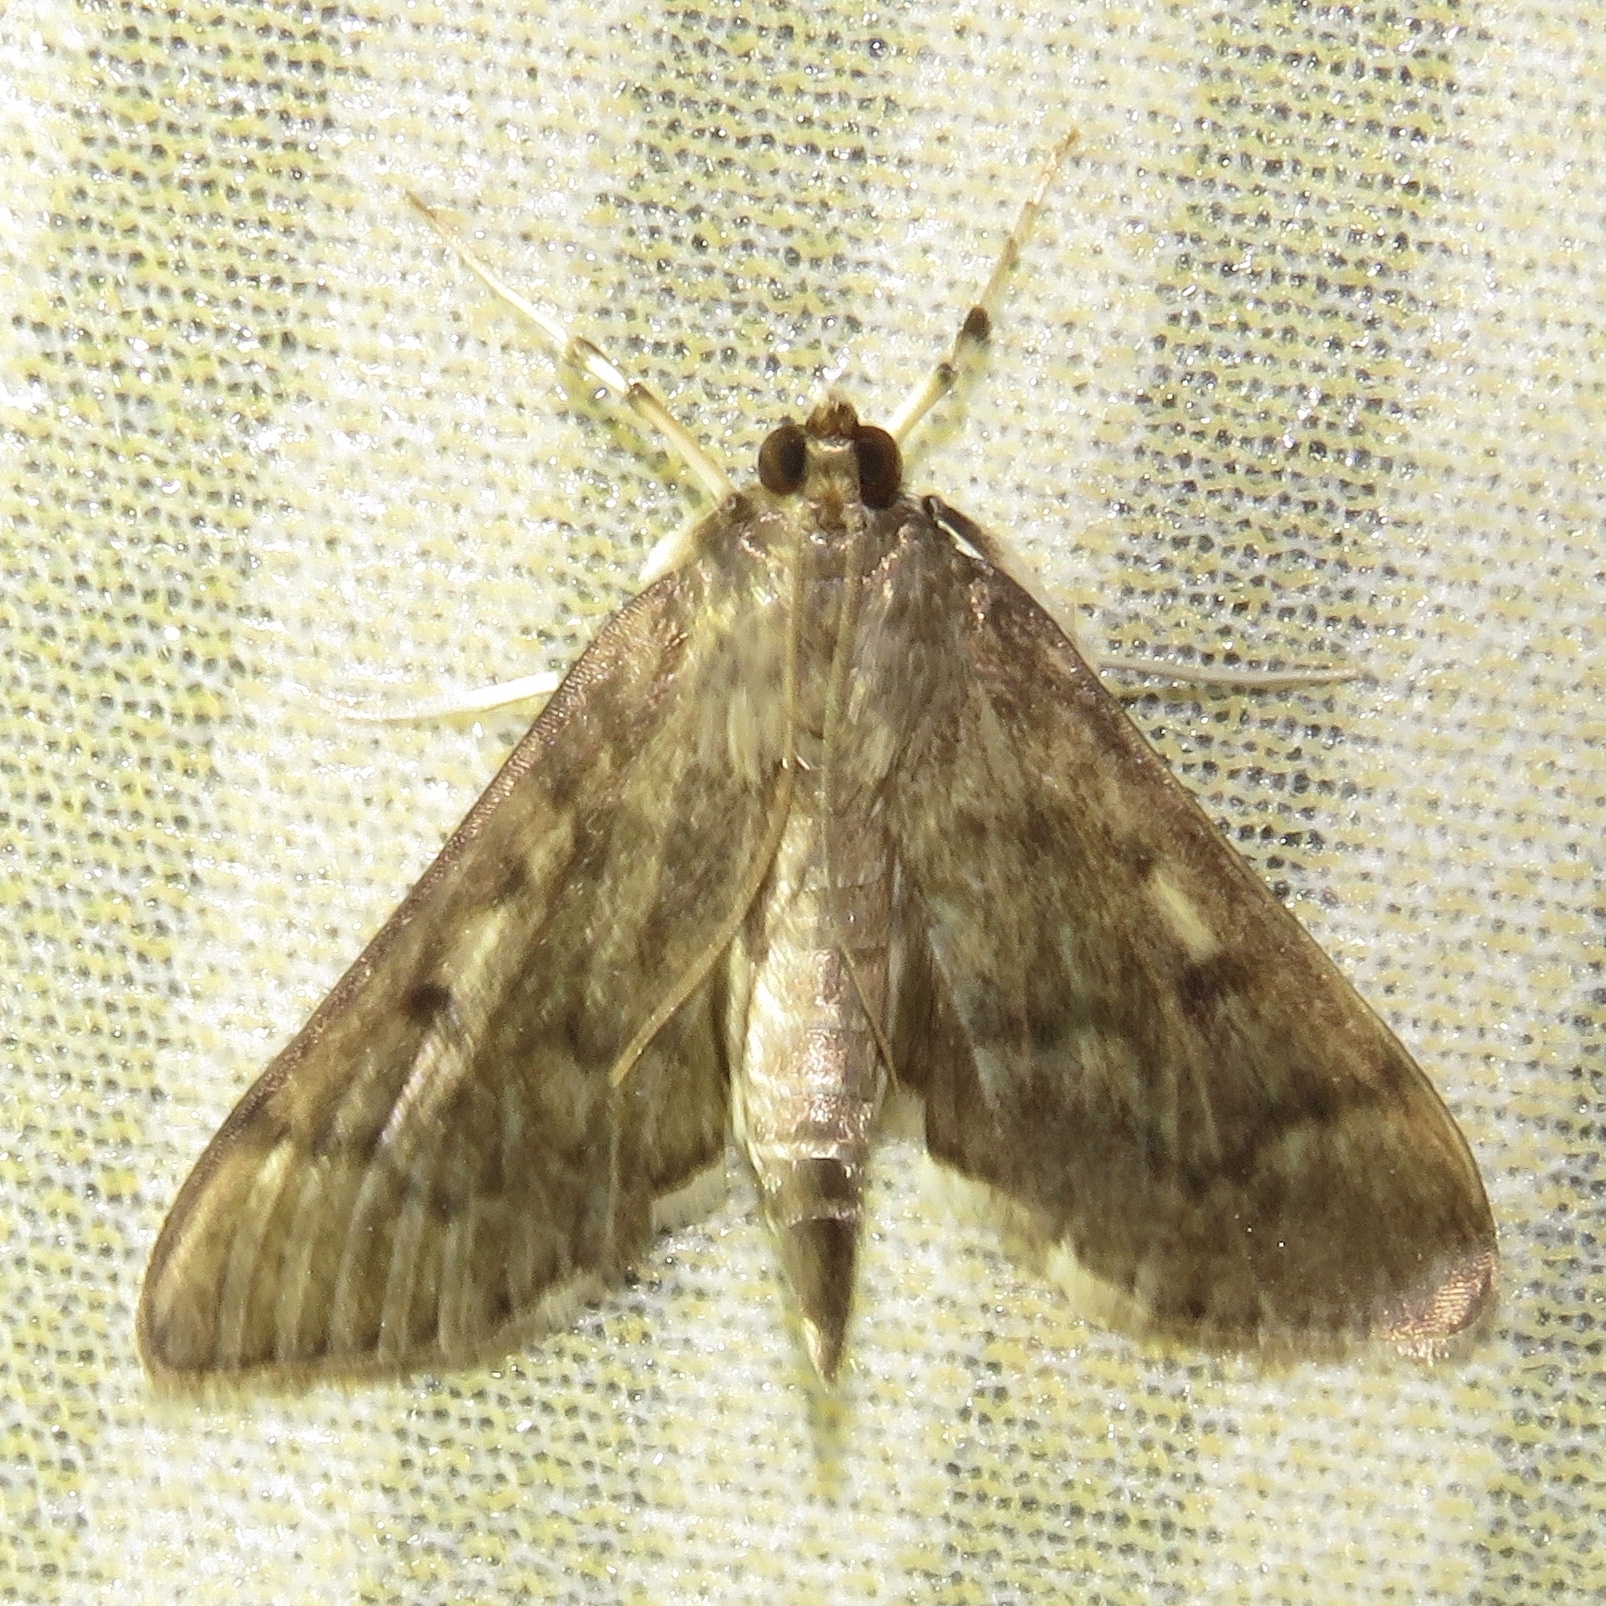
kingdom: Animalia
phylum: Arthropoda
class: Insecta
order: Lepidoptera
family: Crambidae
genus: Herpetogramma
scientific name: Herpetogramma aeglealis
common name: Serpentine webworm moth
